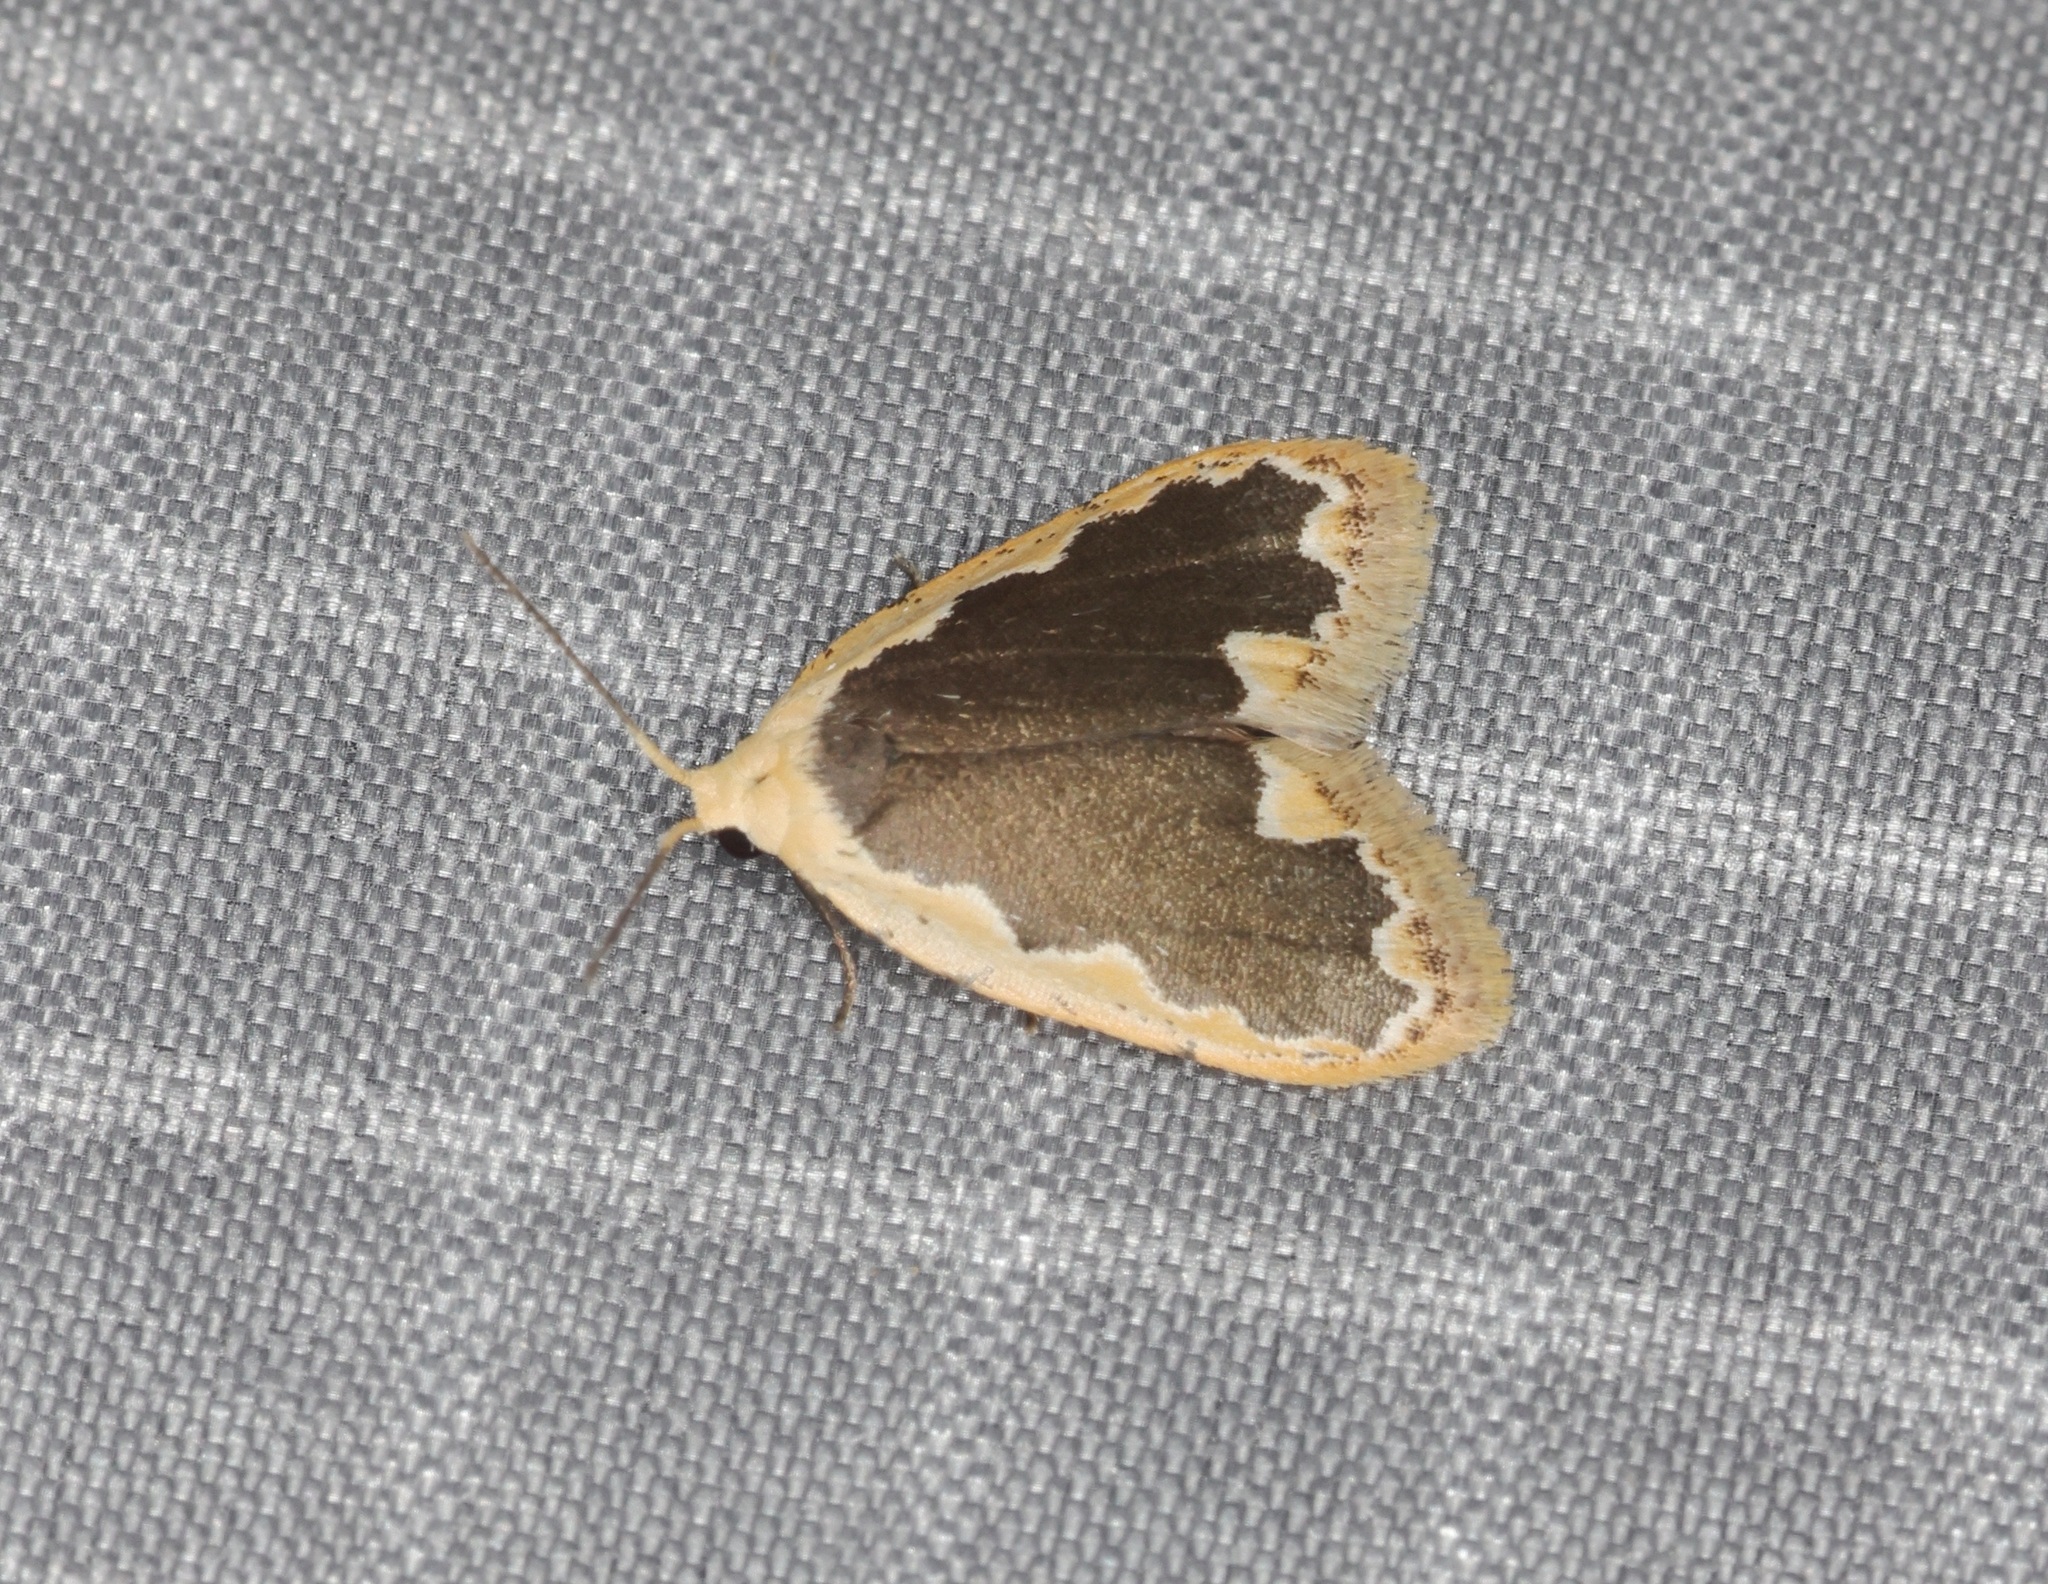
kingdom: Animalia
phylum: Arthropoda
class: Insecta
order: Lepidoptera
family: Erebidae
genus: Diduga
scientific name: Diduga flavicostata
